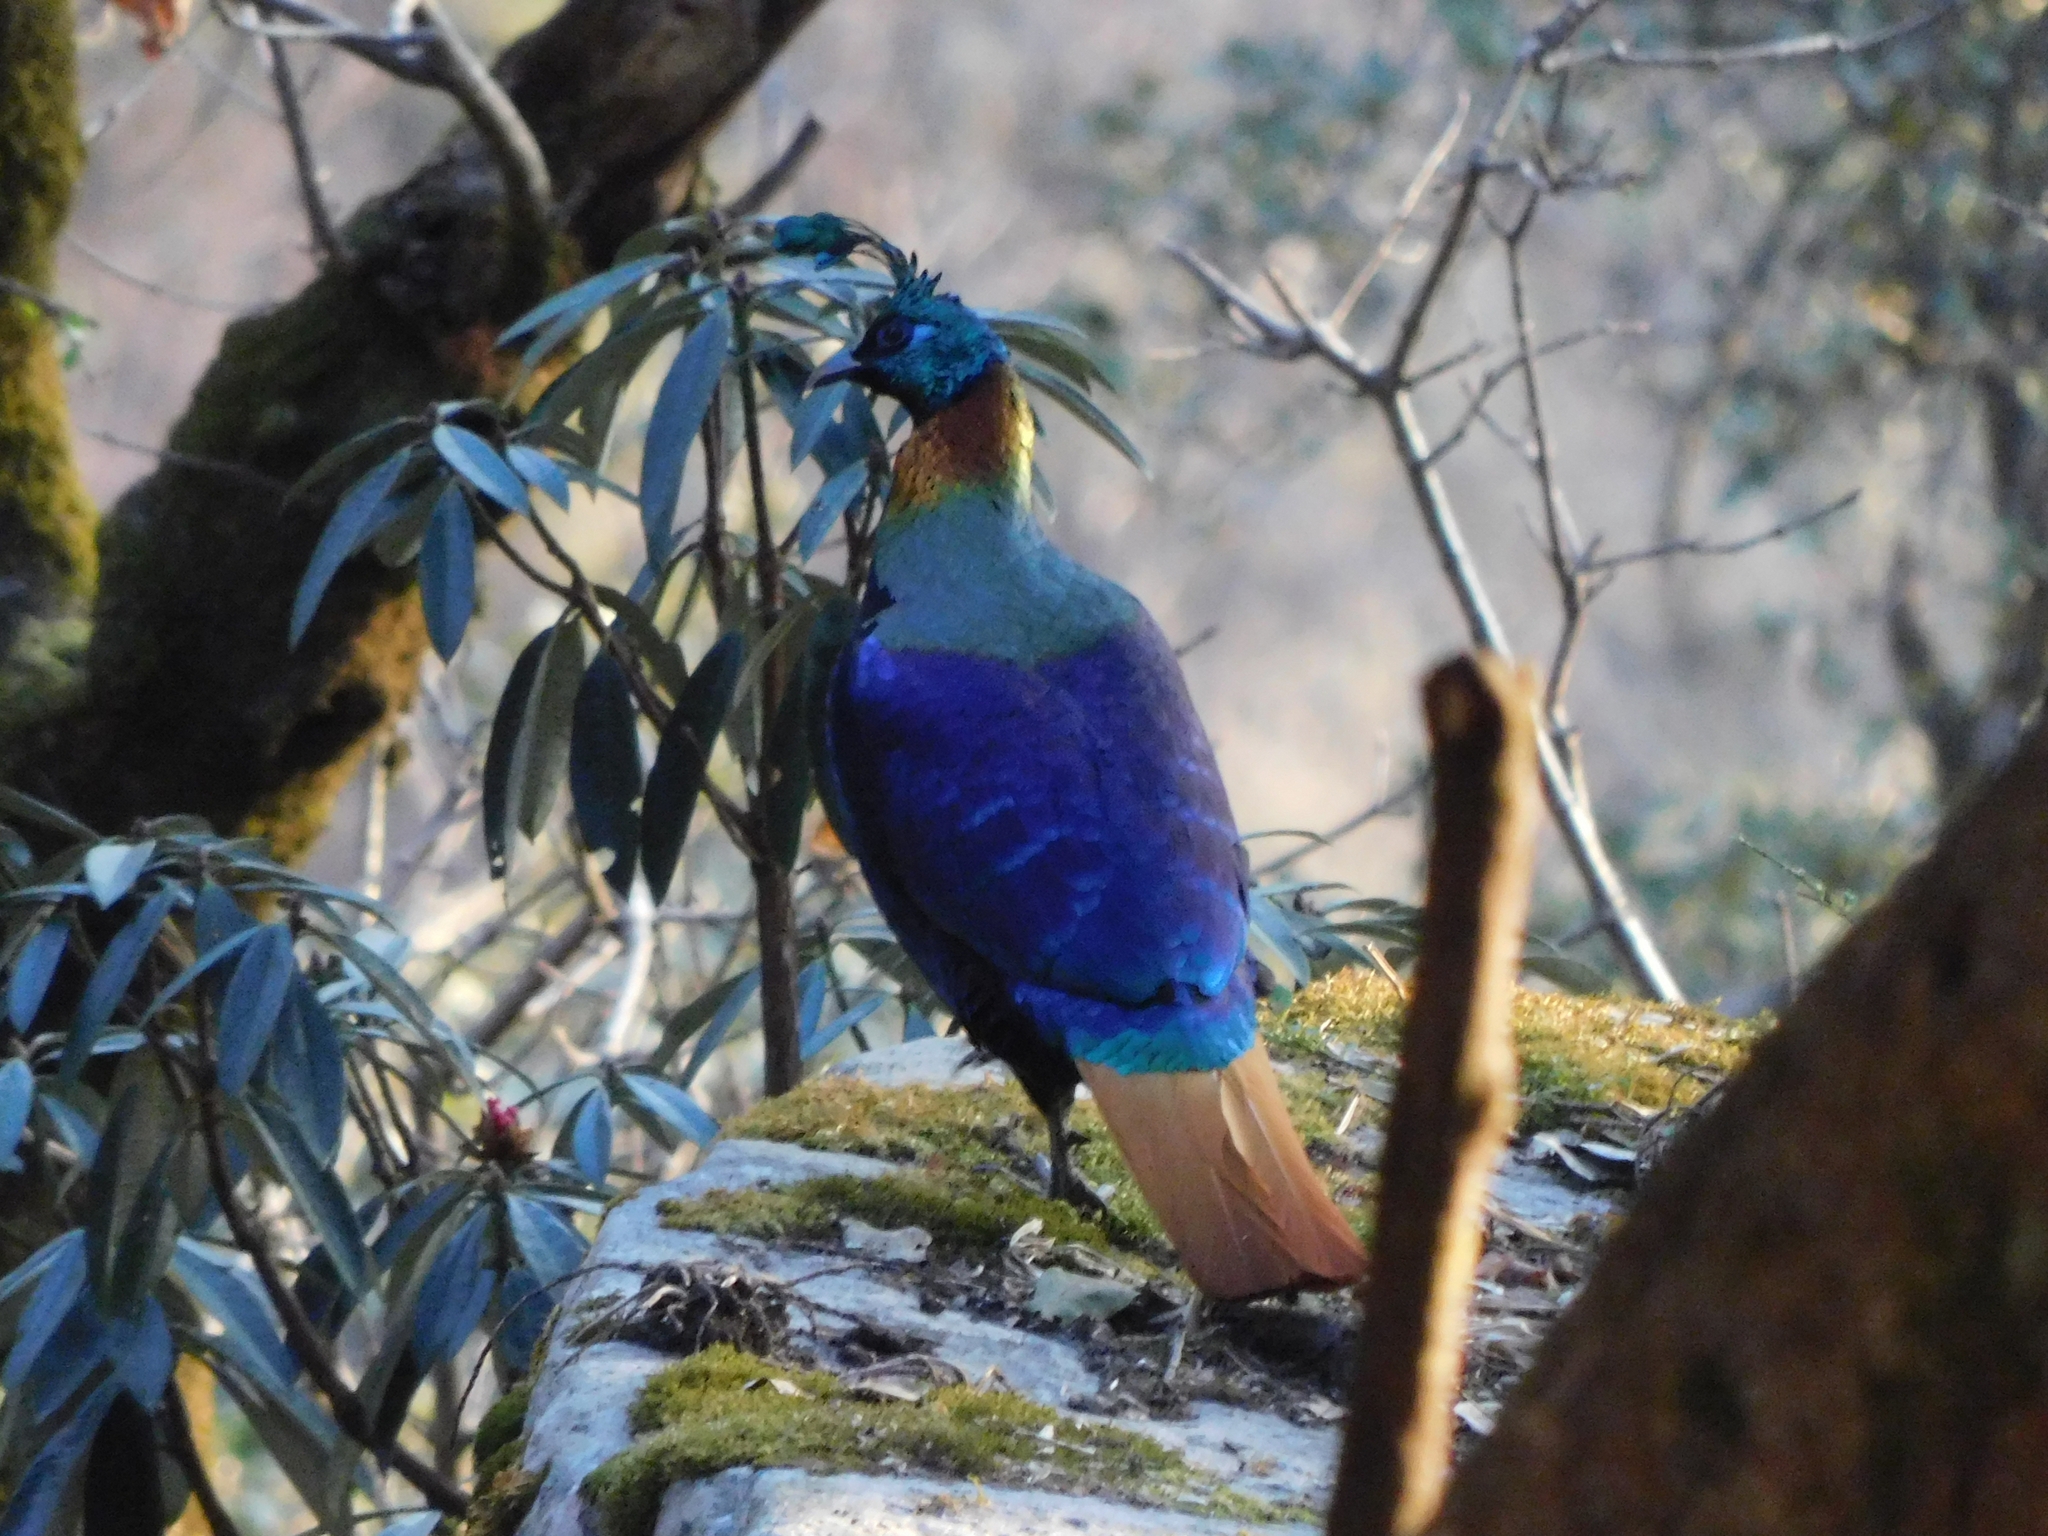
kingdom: Animalia
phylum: Chordata
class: Aves
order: Galliformes
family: Phasianidae
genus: Lophophorus
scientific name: Lophophorus impejanus
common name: Himalayan monal
